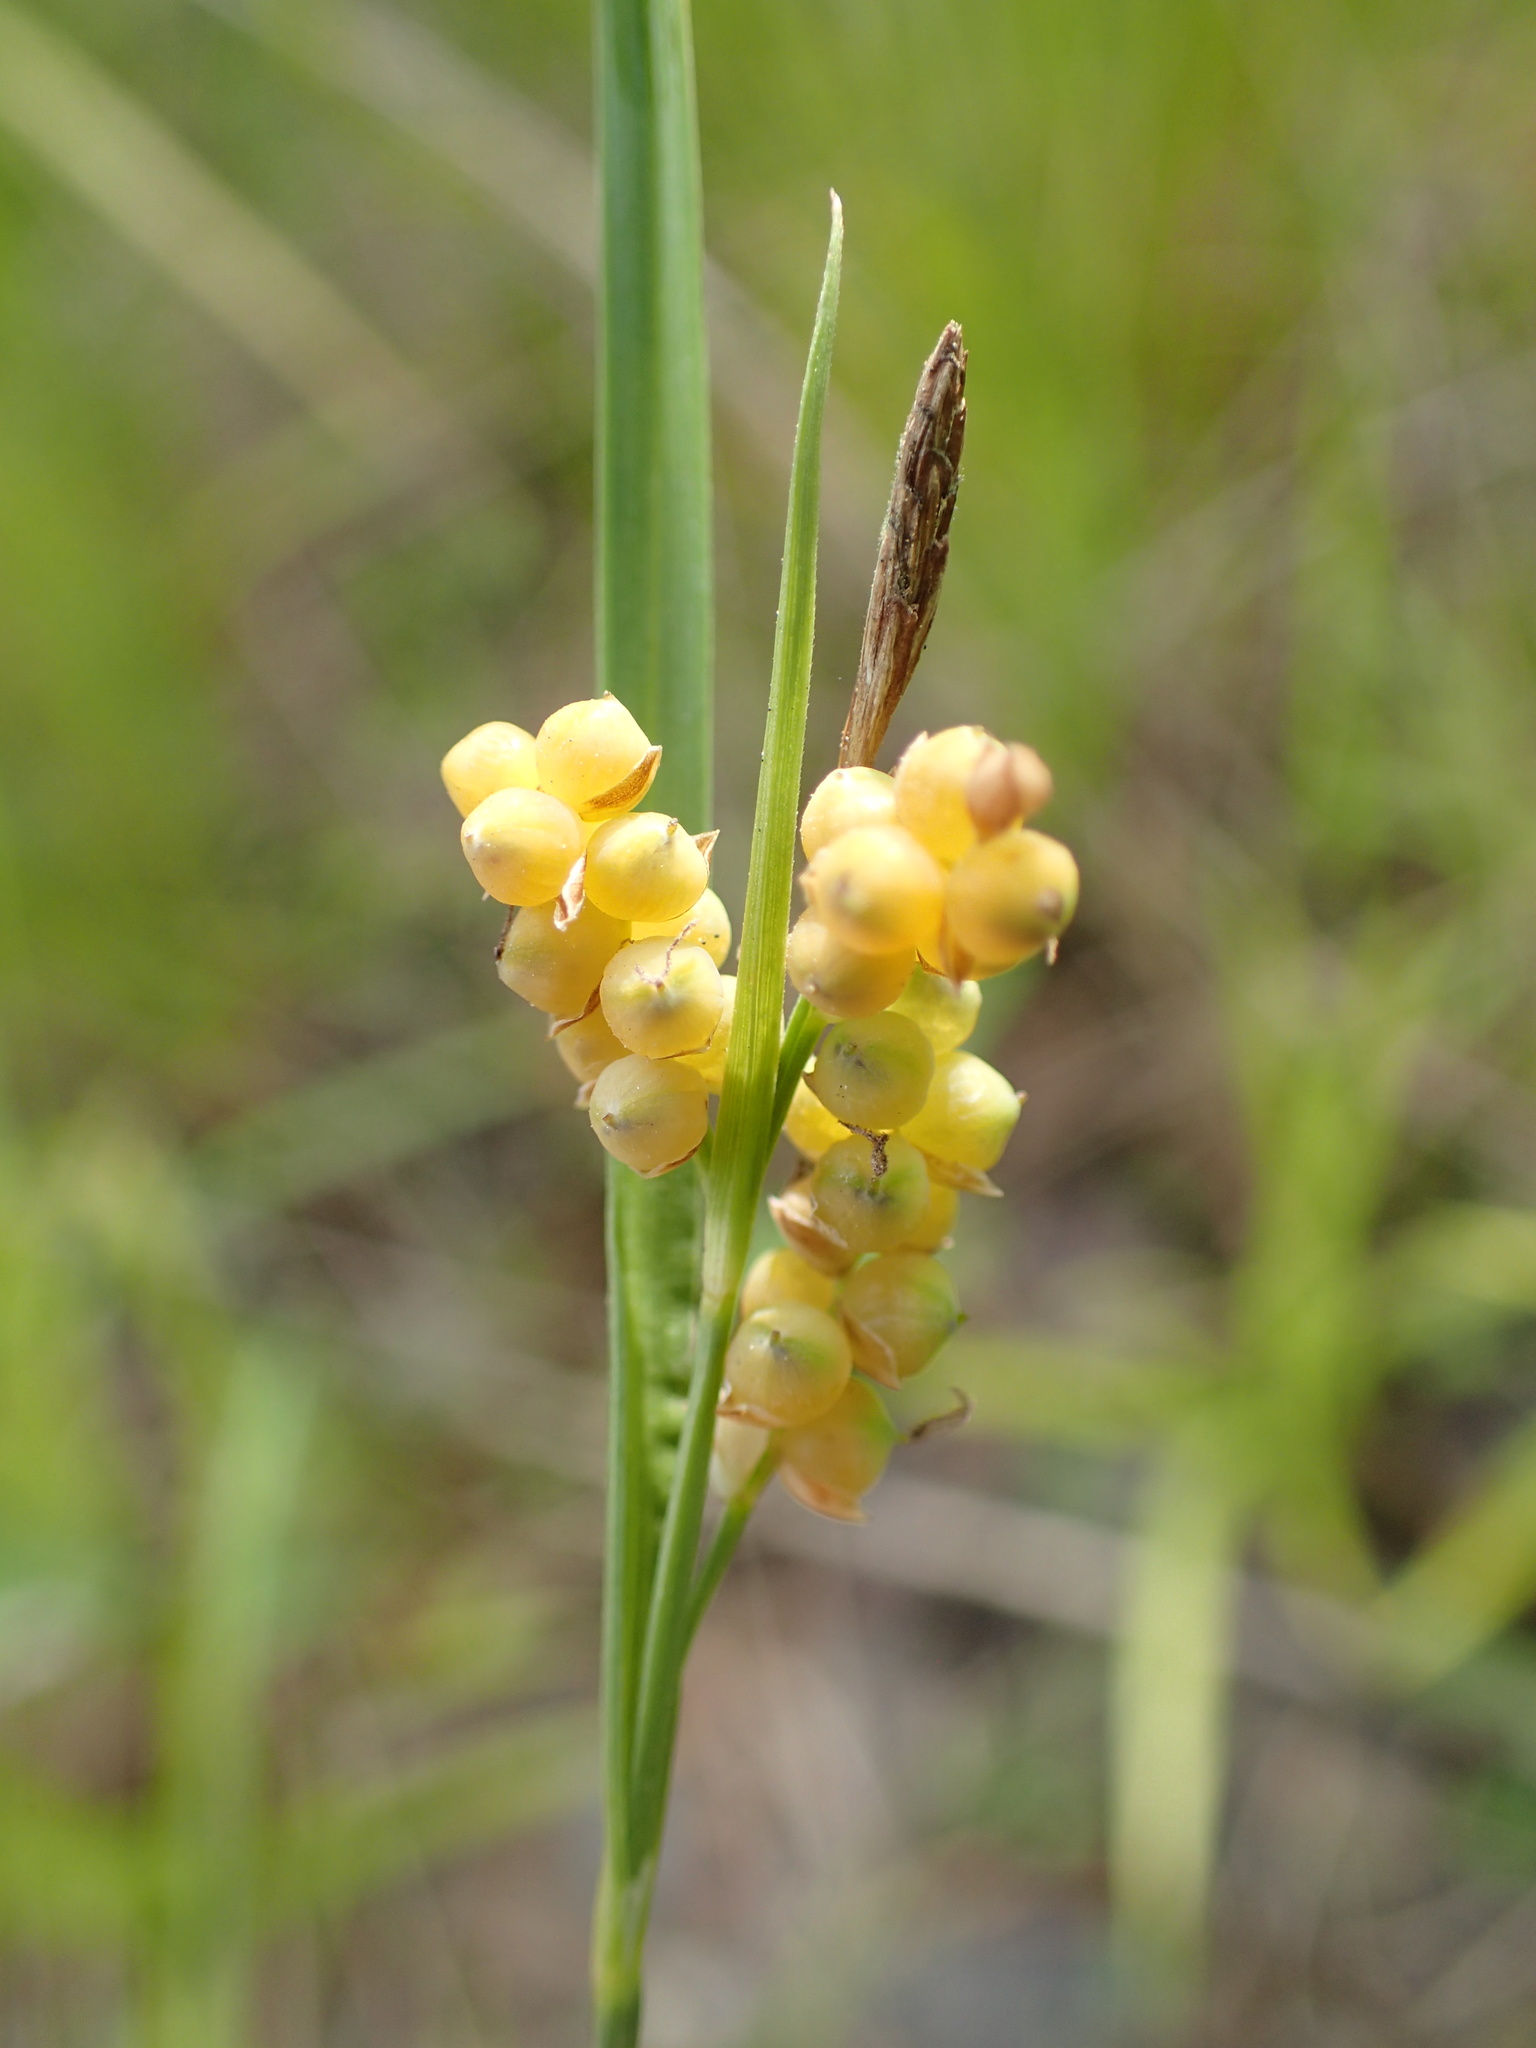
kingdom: Plantae
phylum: Tracheophyta
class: Liliopsida
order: Poales
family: Cyperaceae
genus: Carex
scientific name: Carex aurea
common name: Golden sedge
